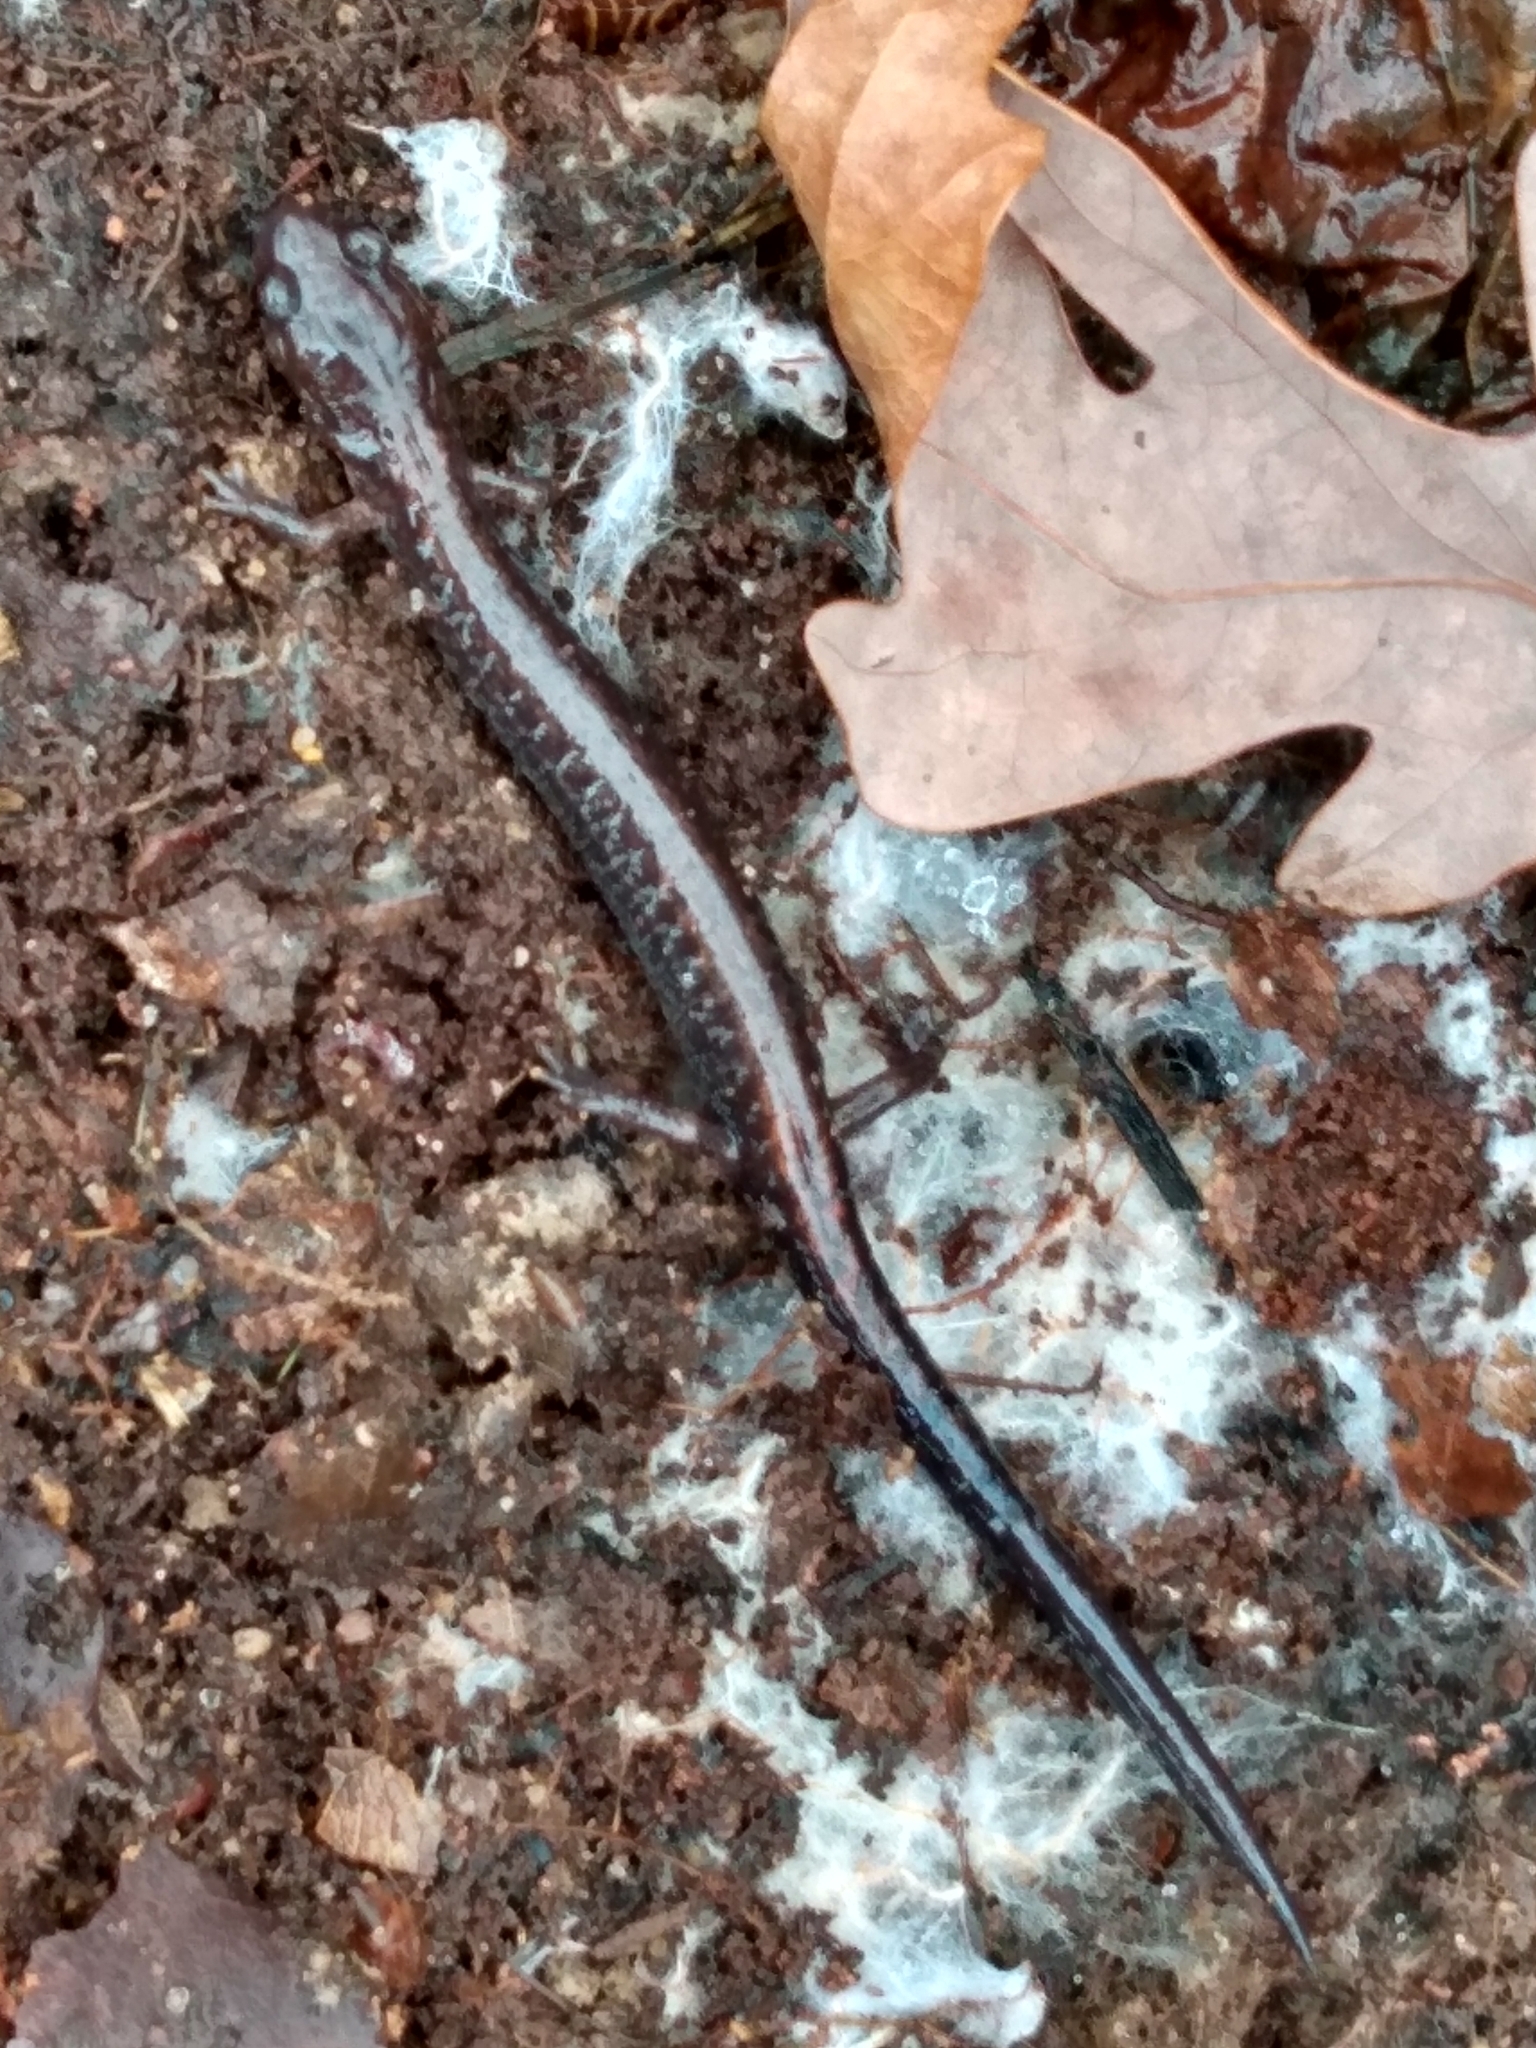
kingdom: Animalia
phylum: Chordata
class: Amphibia
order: Caudata
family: Plethodontidae
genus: Plethodon
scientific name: Plethodon cinereus
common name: Redback salamander
